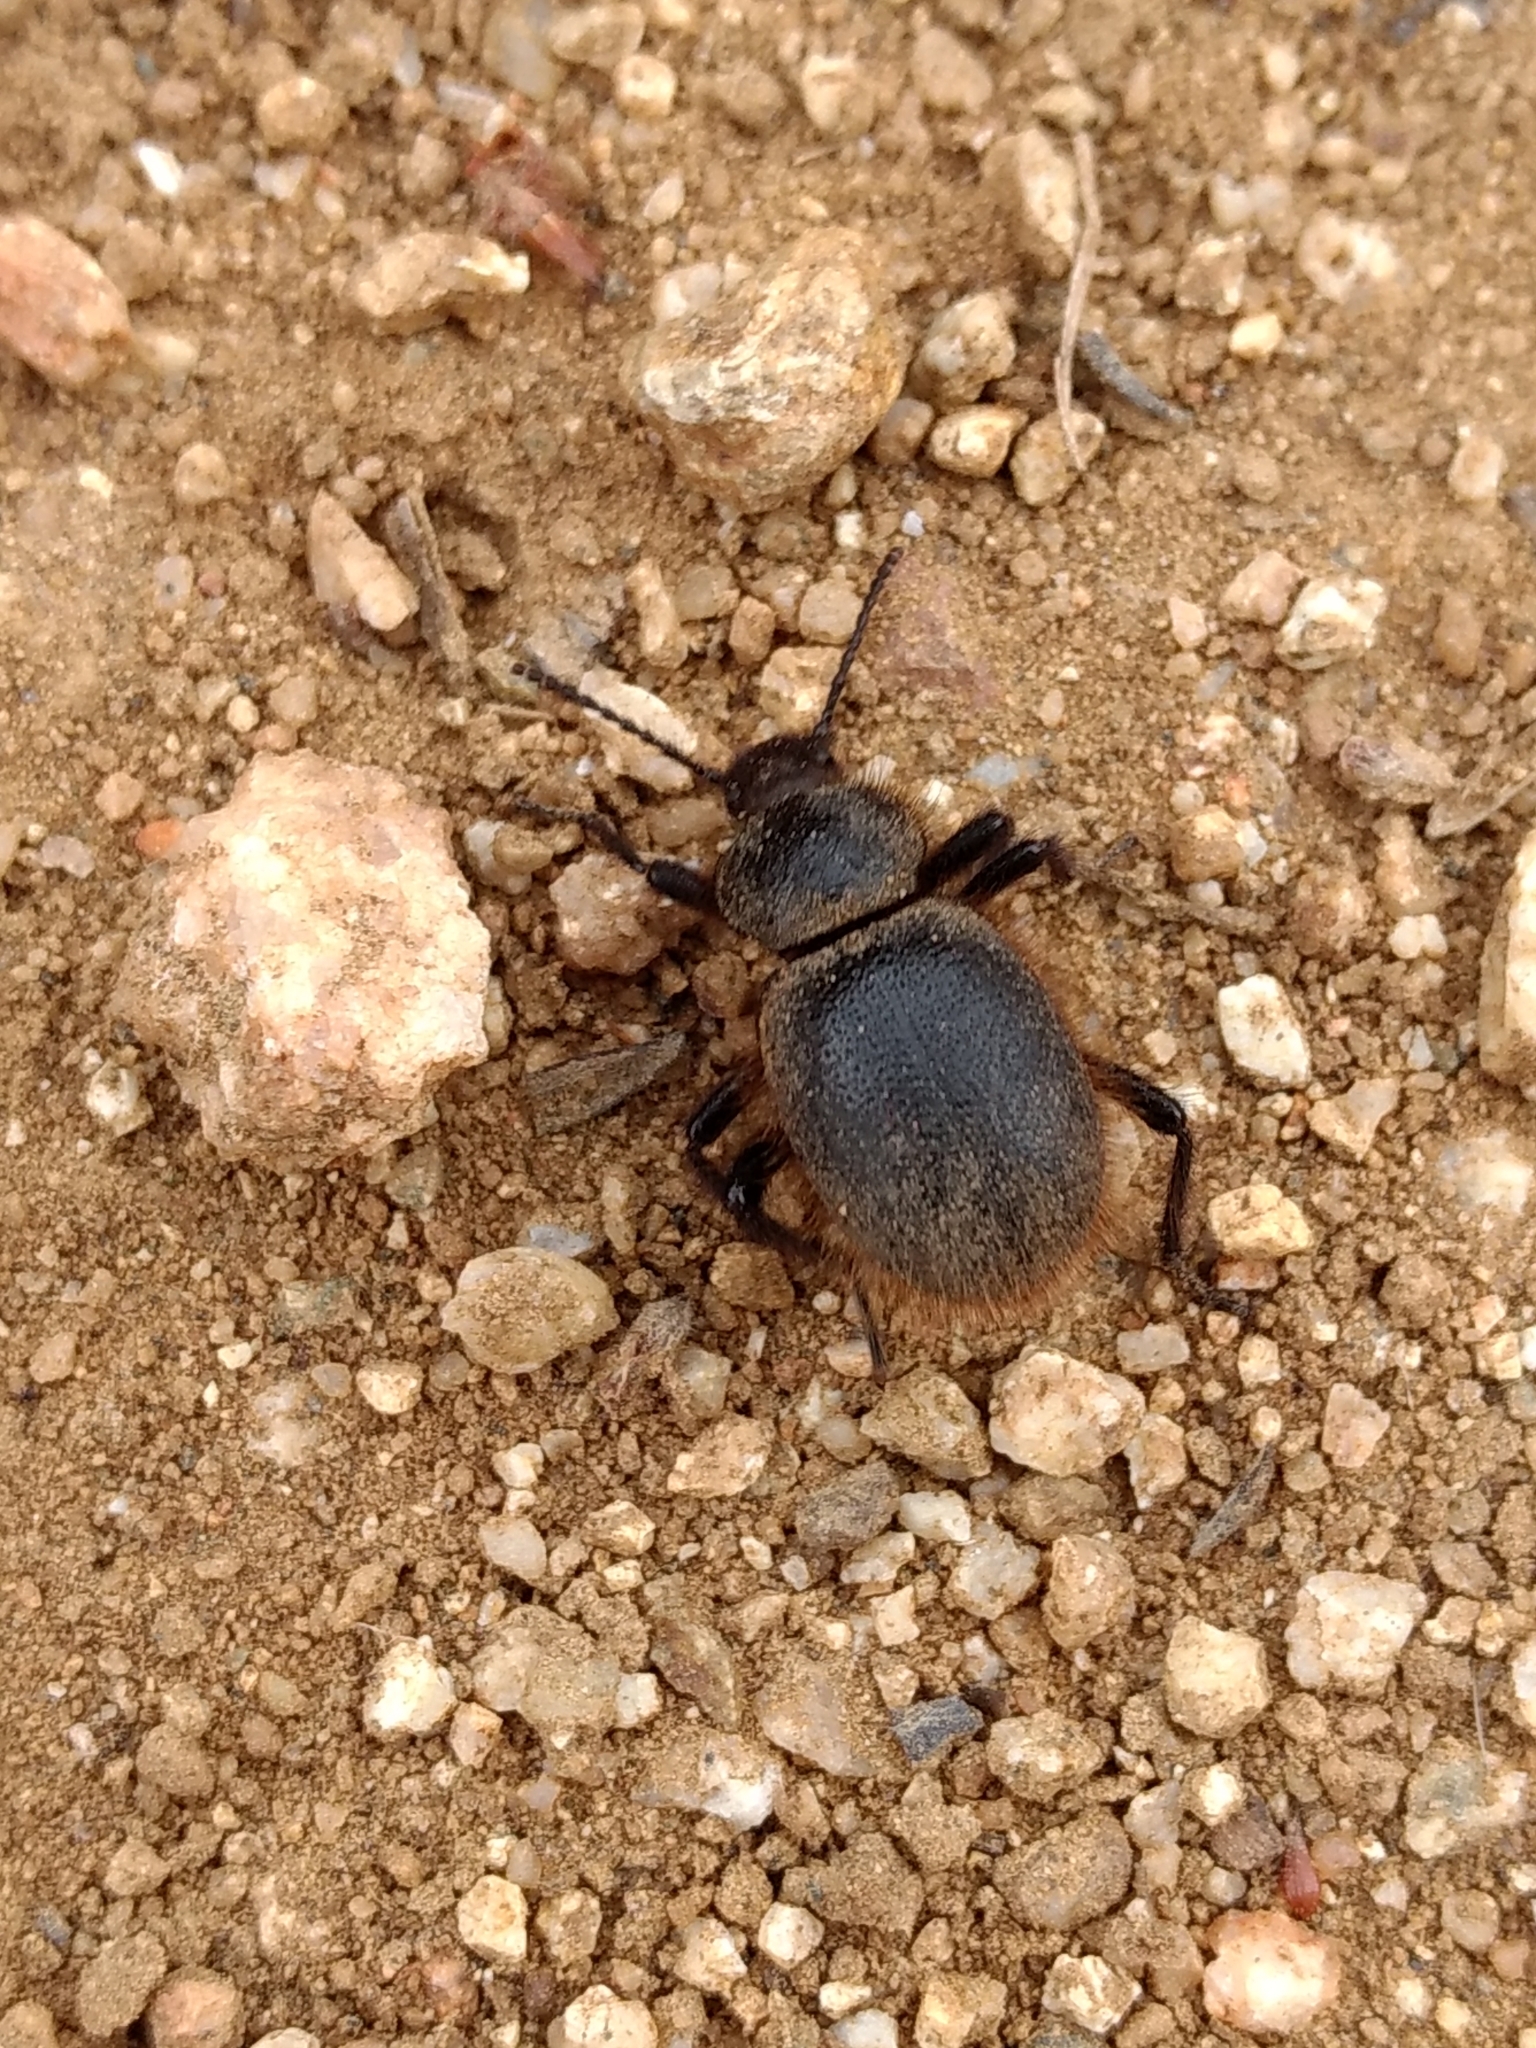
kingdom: Animalia
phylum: Arthropoda
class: Insecta
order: Coleoptera
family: Tenebrionidae
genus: Eleodes
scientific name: Eleodes osculans
